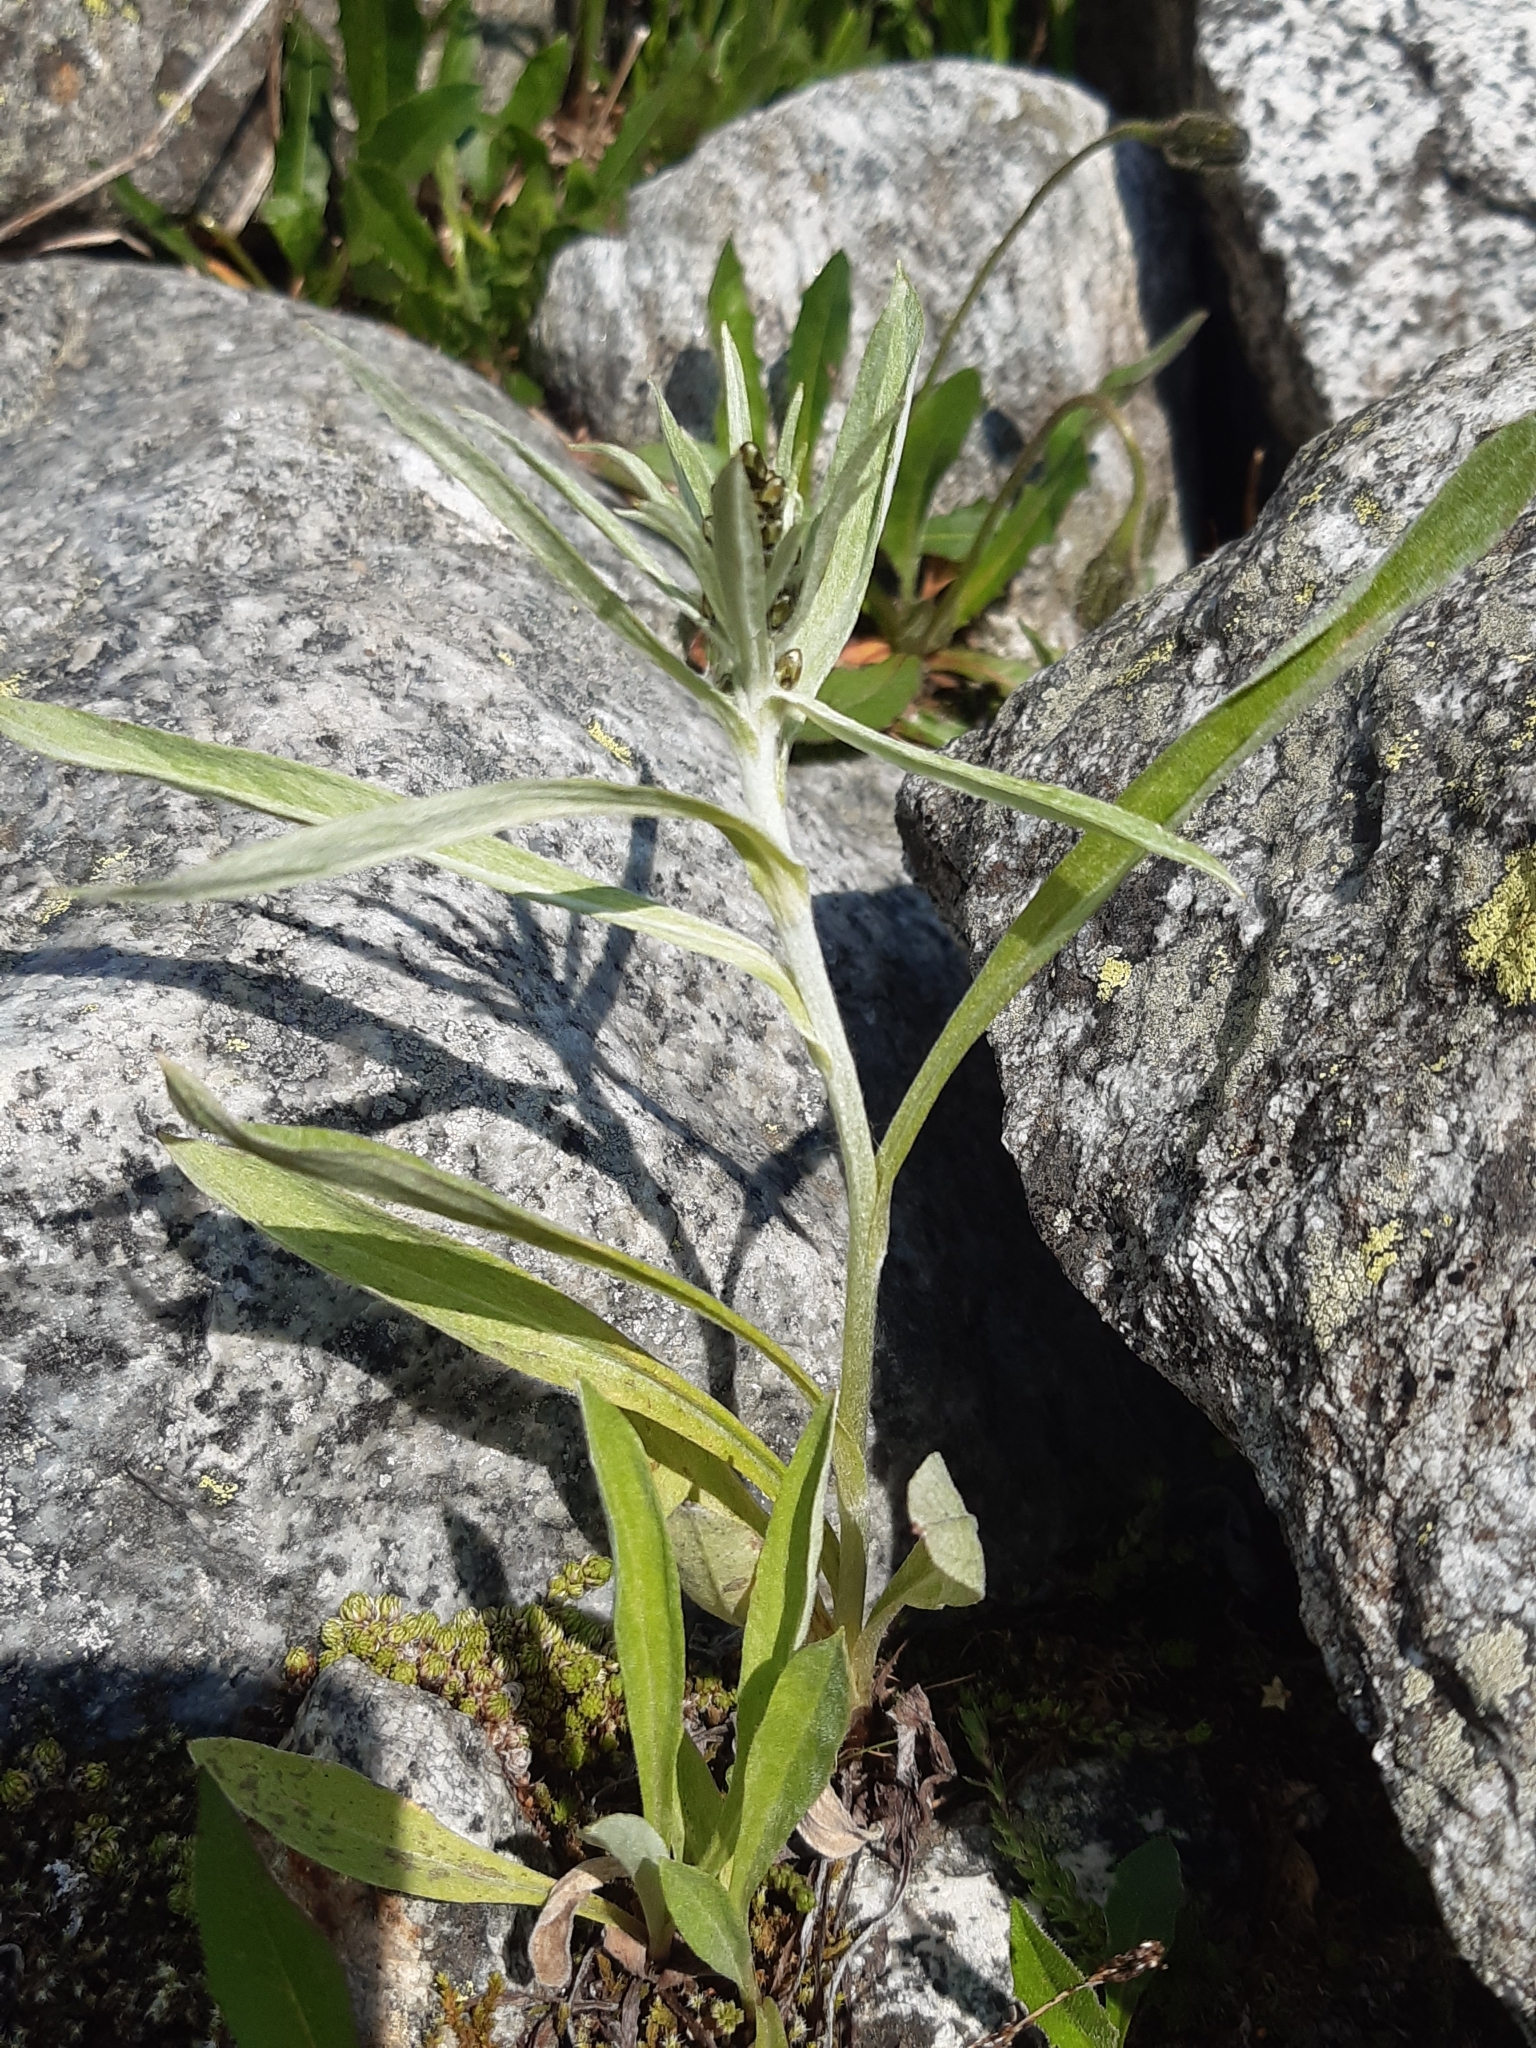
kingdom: Plantae
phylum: Tracheophyta
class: Magnoliopsida
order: Asterales
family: Asteraceae
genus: Omalotheca
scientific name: Omalotheca norvegica
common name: Norwegian arctic-cudweed
